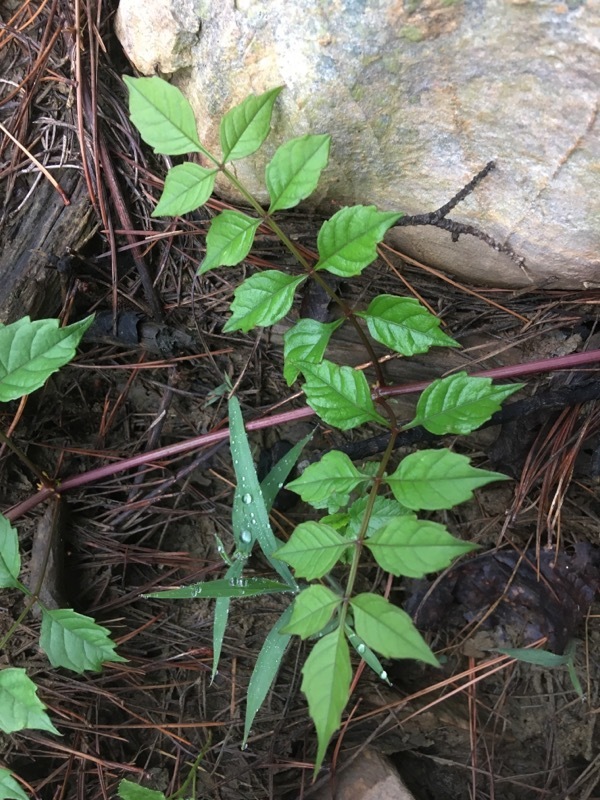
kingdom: Plantae
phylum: Tracheophyta
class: Magnoliopsida
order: Lamiales
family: Bignoniaceae
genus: Campsis
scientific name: Campsis radicans
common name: Trumpet-creeper
